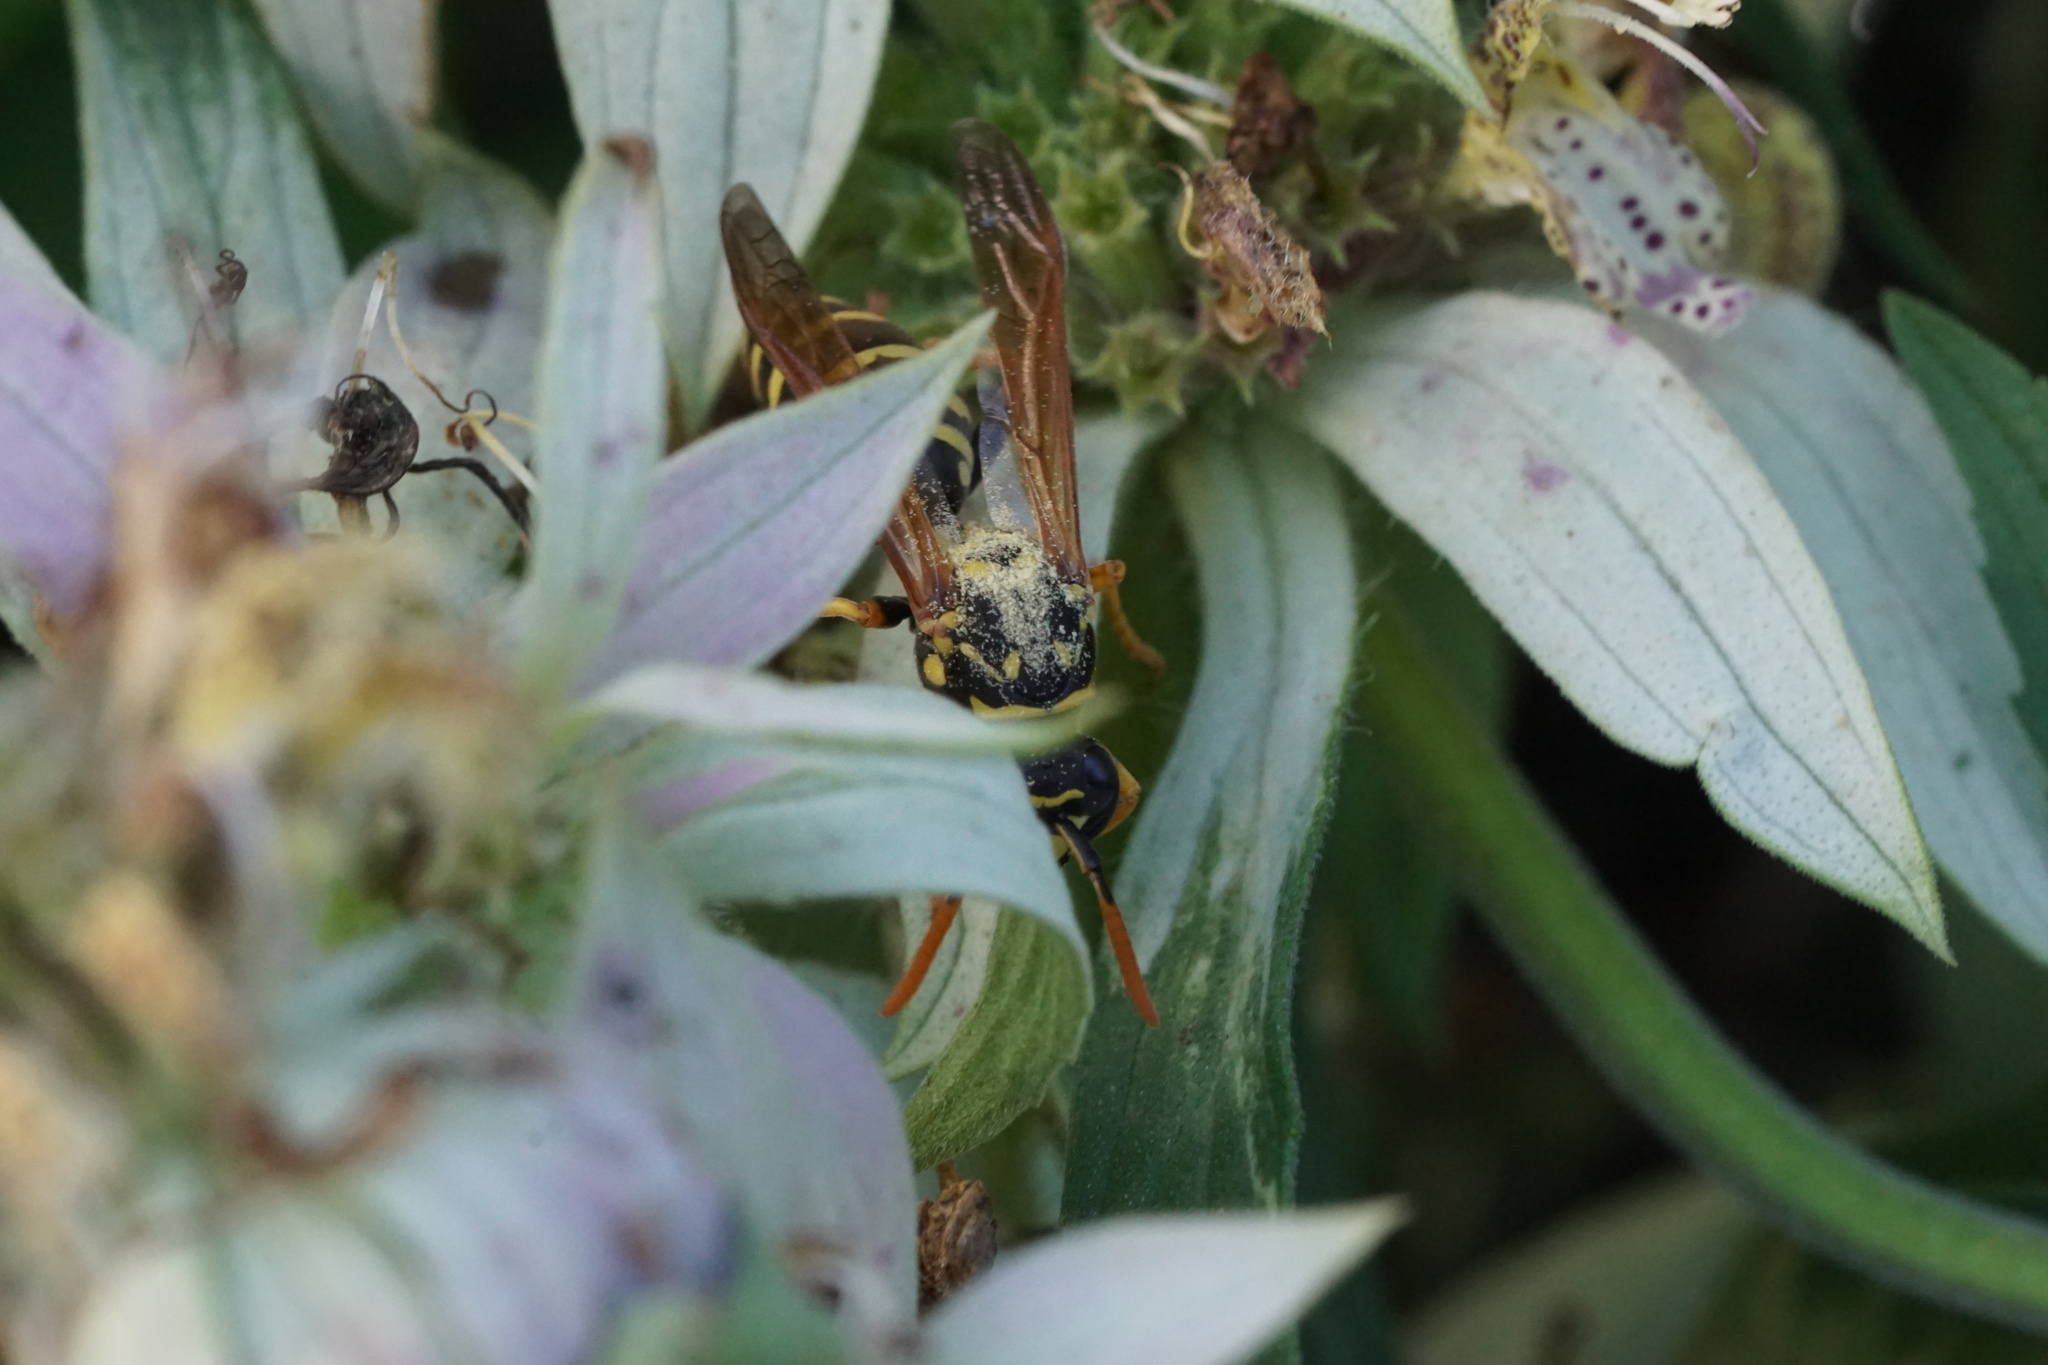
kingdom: Animalia
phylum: Arthropoda
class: Insecta
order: Hymenoptera
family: Eumenidae
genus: Polistes
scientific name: Polistes dominula
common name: Paper wasp
